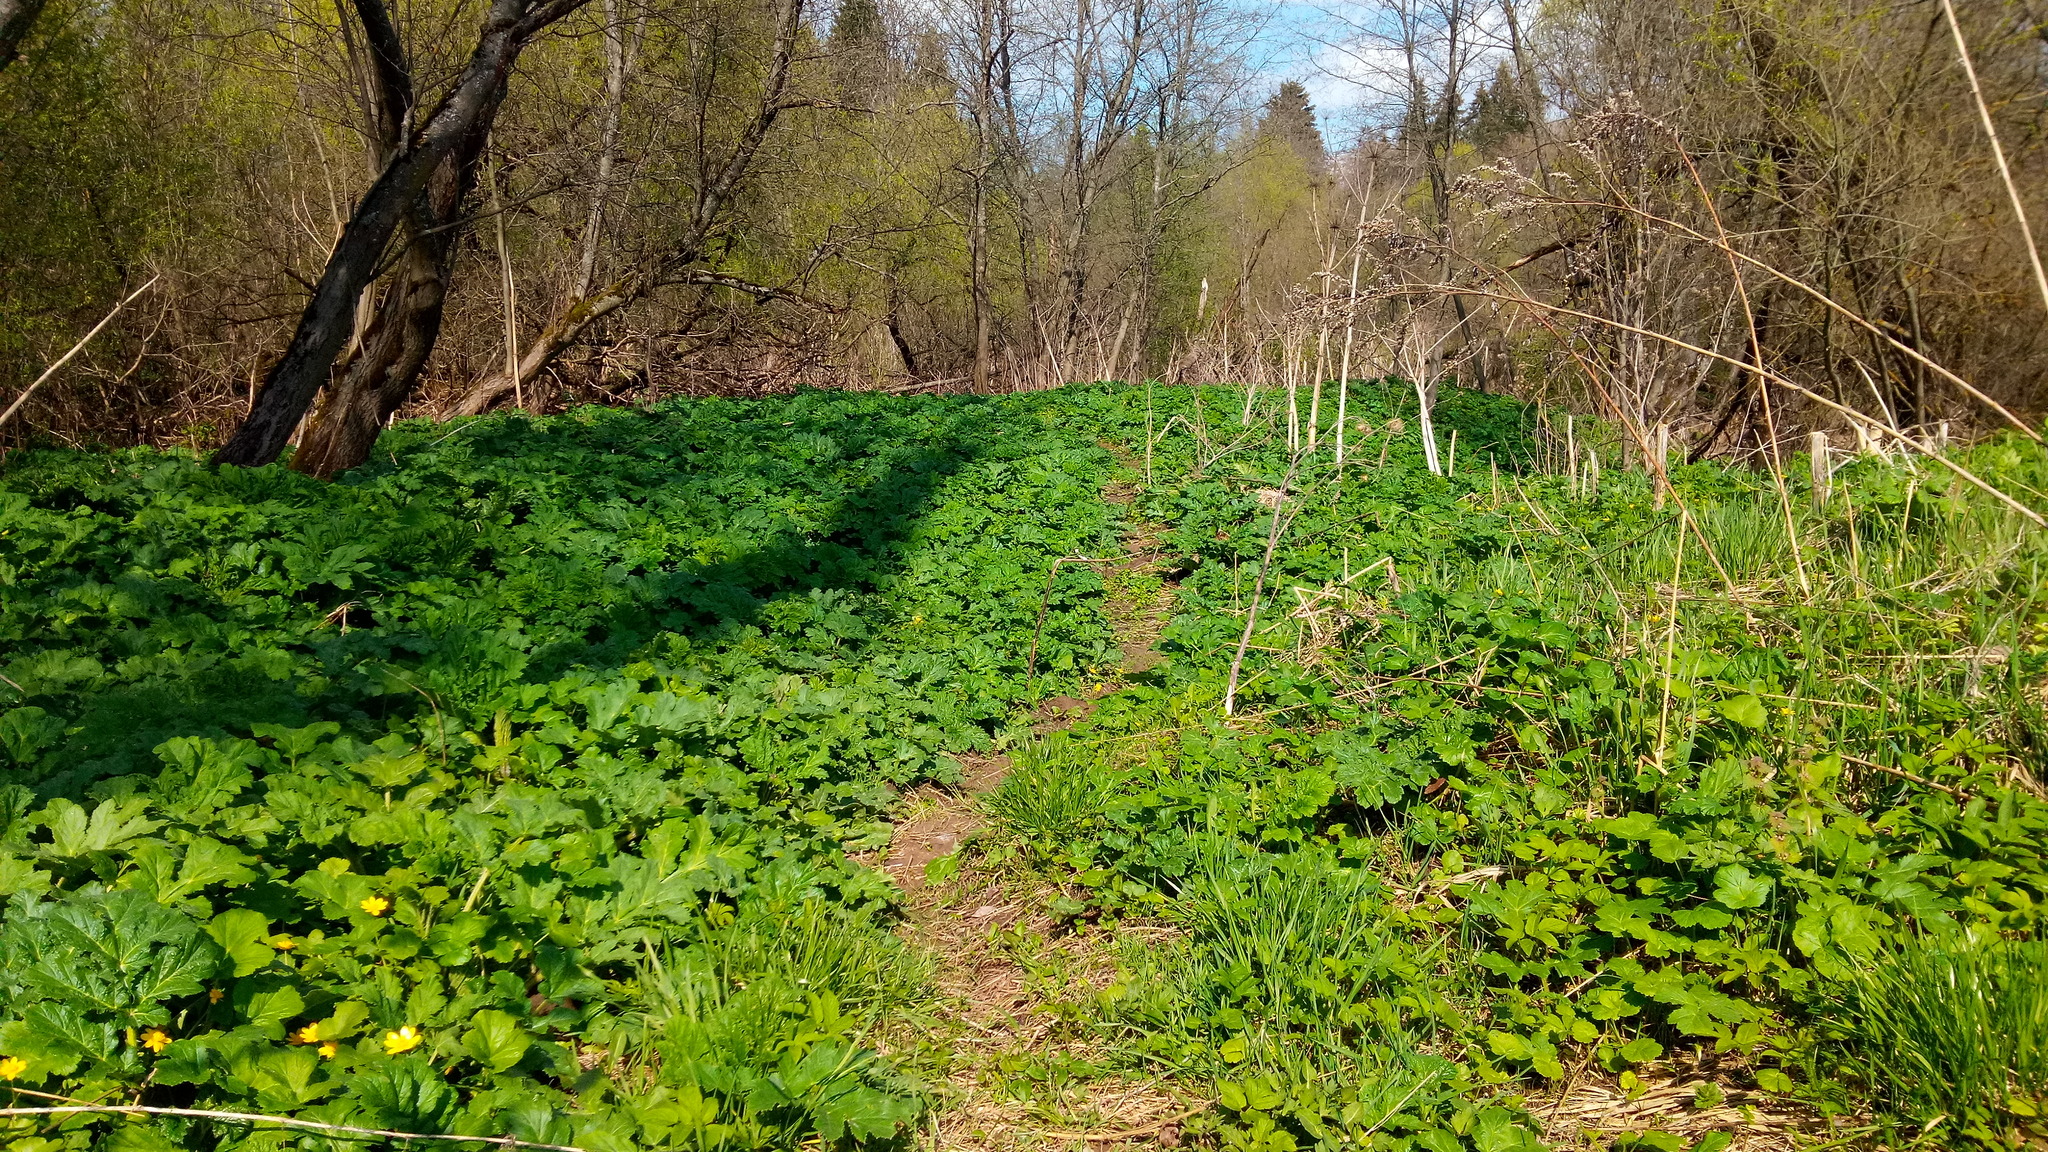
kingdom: Plantae
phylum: Tracheophyta
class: Magnoliopsida
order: Apiales
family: Apiaceae
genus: Heracleum
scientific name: Heracleum sosnowskyi
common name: Sosnowsky's hogweed
